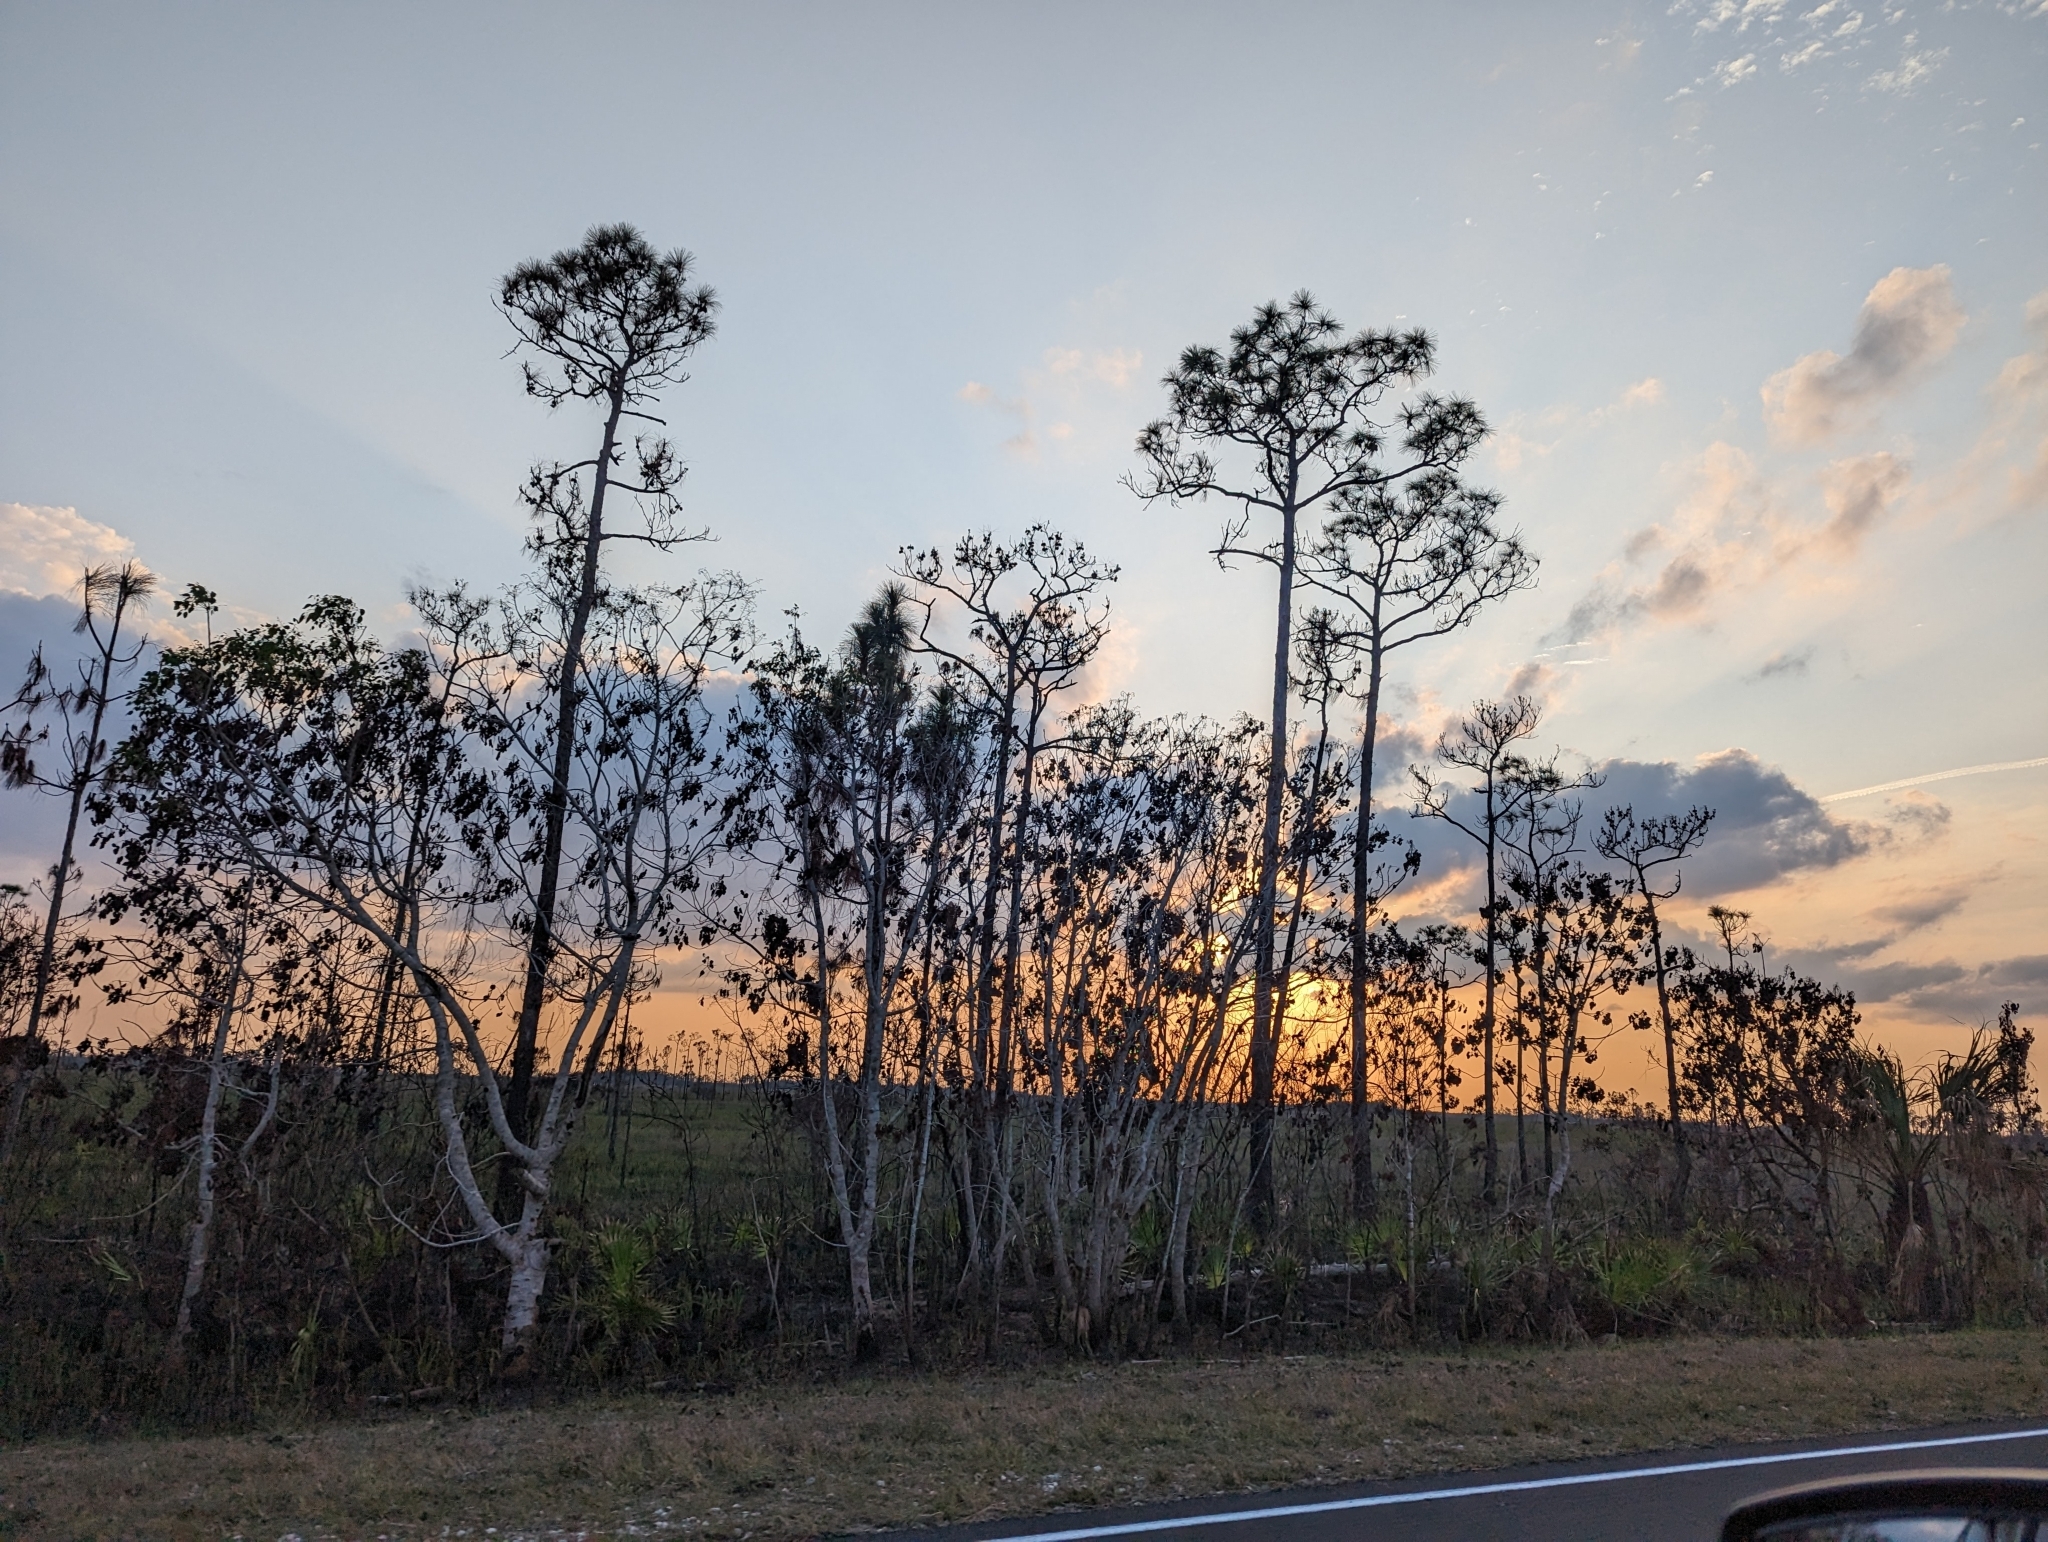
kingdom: Plantae
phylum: Tracheophyta
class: Pinopsida
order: Pinales
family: Pinaceae
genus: Pinus
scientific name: Pinus elliottii
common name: Slash pine
